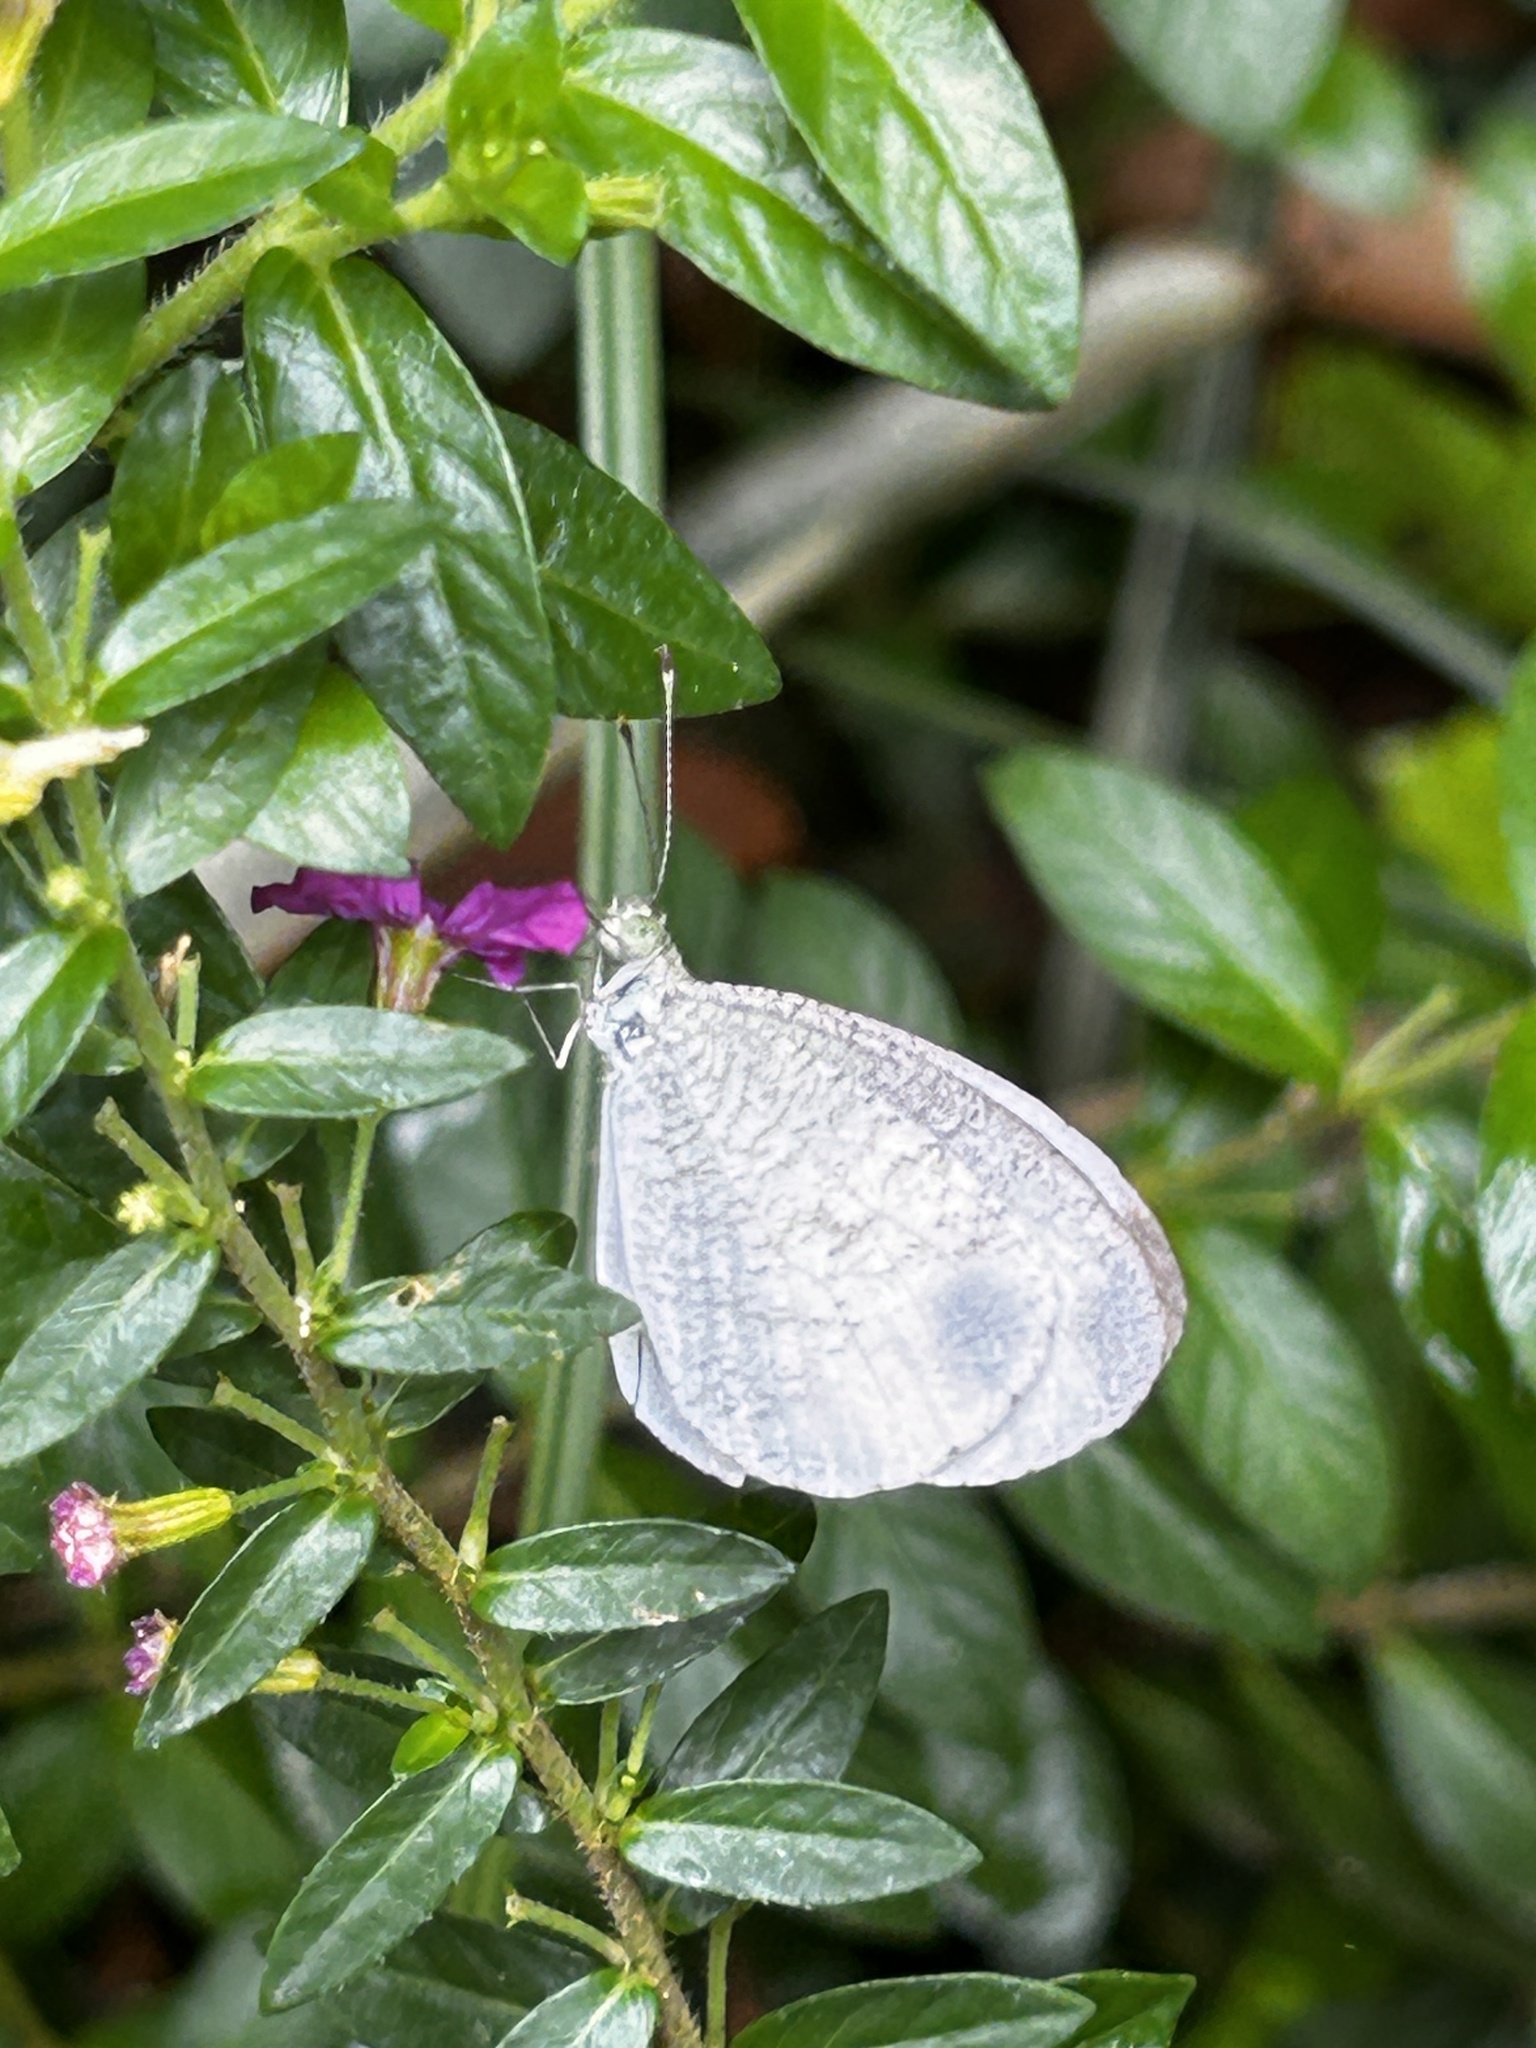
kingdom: Animalia
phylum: Arthropoda
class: Insecta
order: Lepidoptera
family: Pieridae
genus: Leptosia
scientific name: Leptosia nina
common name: Psyche
